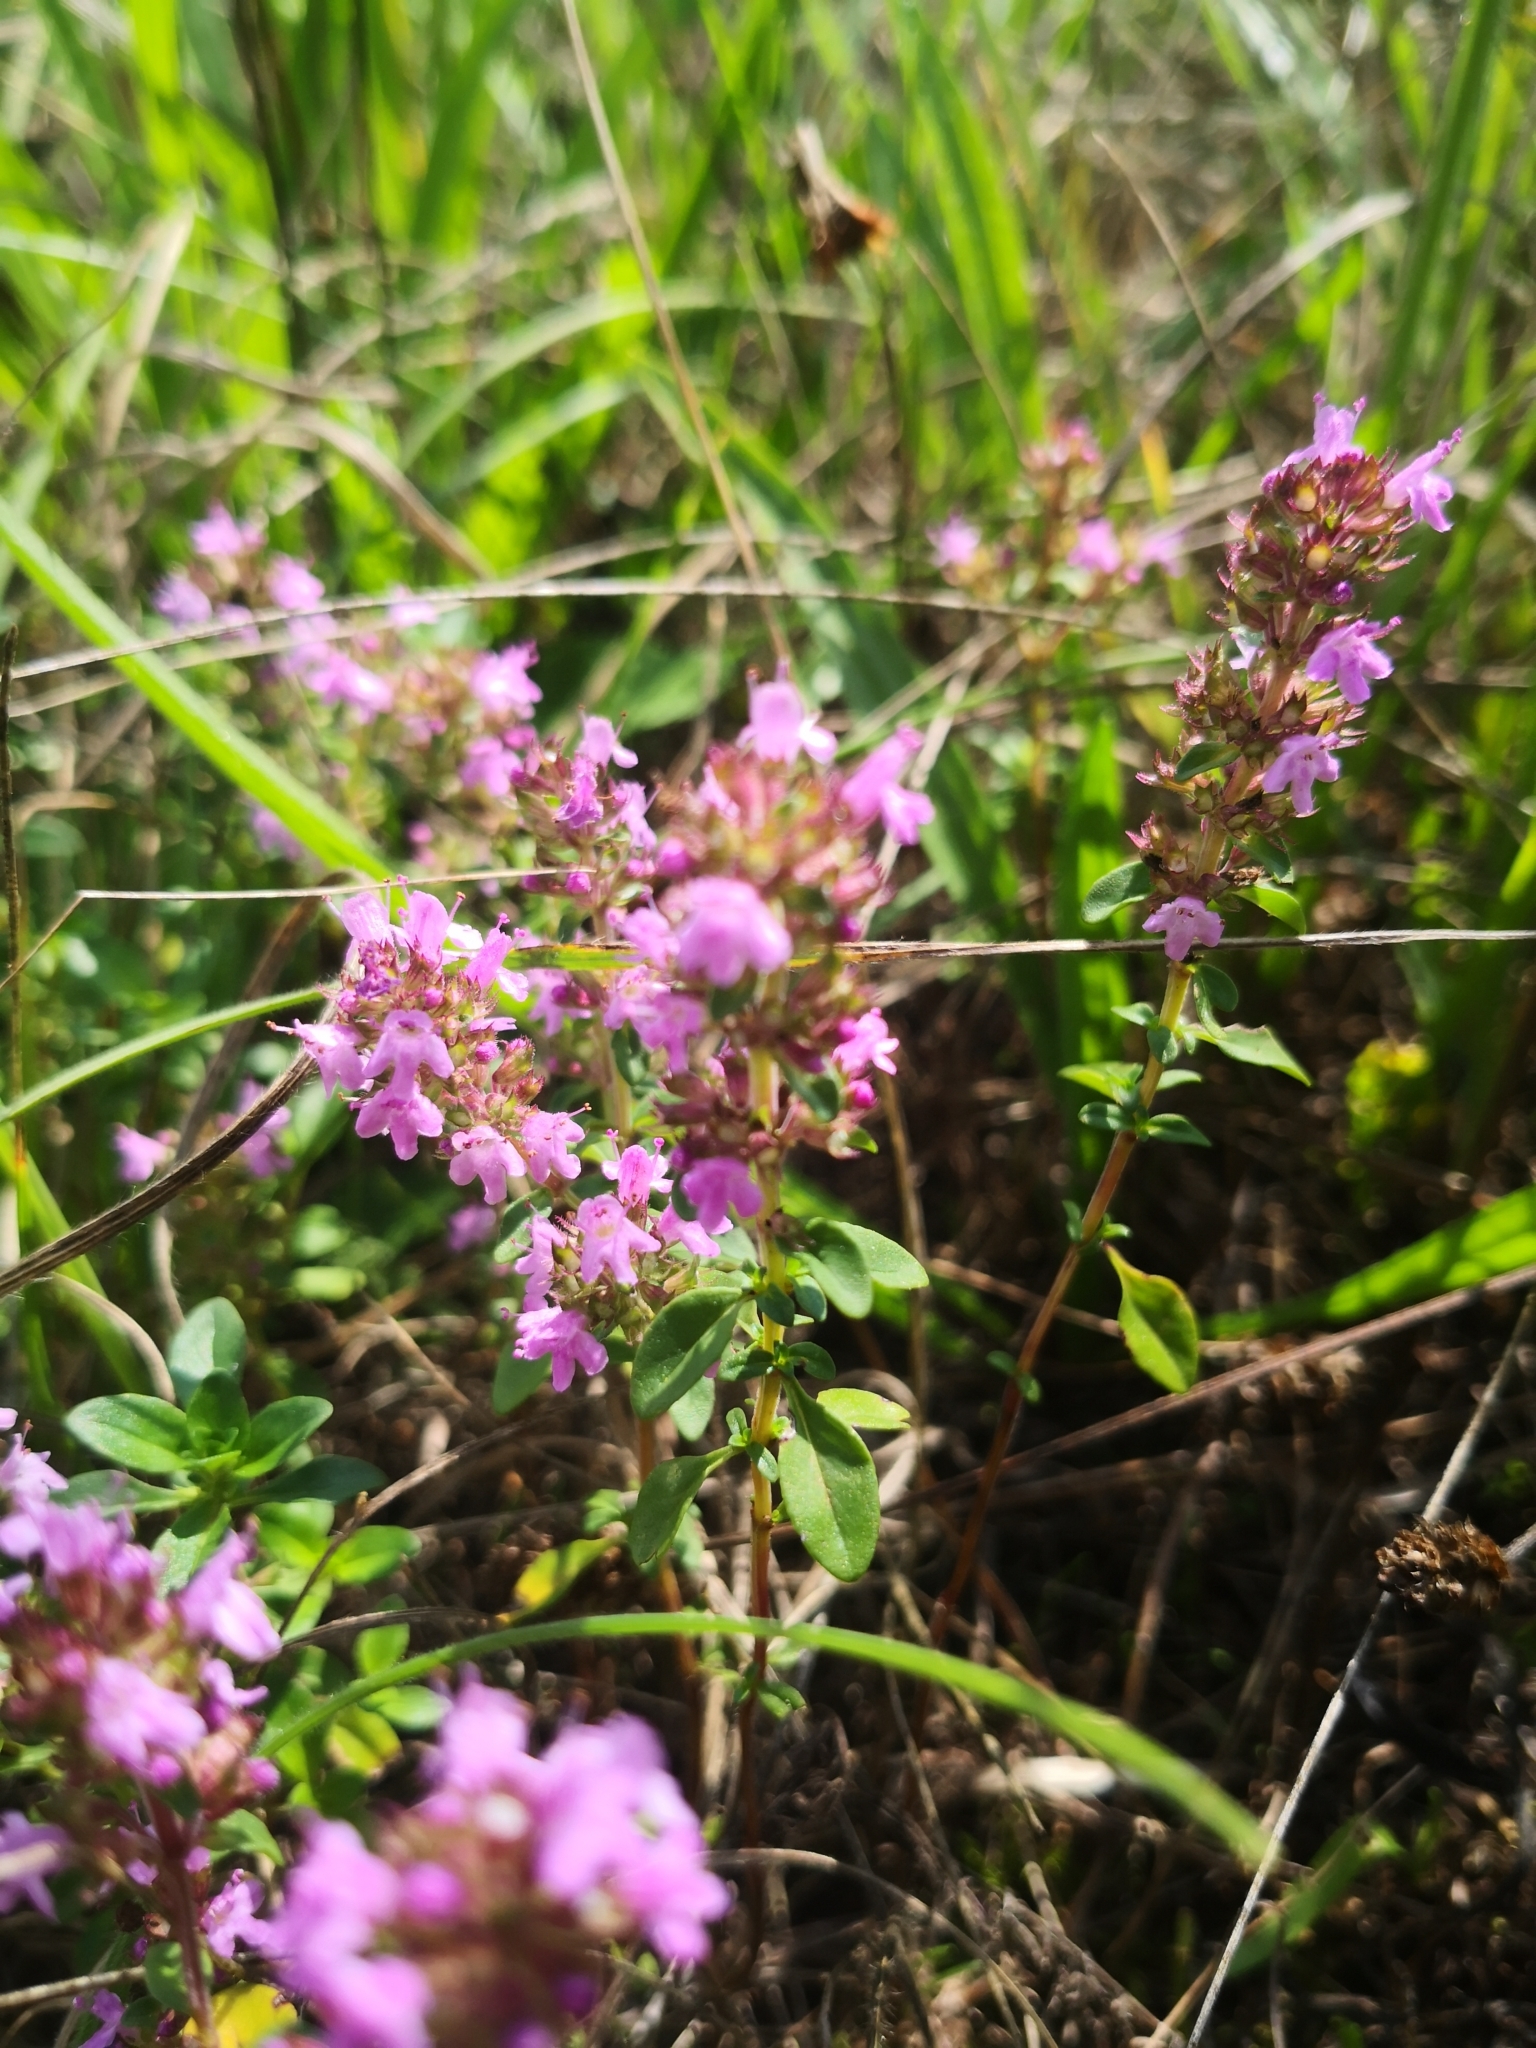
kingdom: Plantae
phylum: Tracheophyta
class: Magnoliopsida
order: Lamiales
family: Lamiaceae
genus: Thymus
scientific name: Thymus pulegioides
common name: Large thyme
